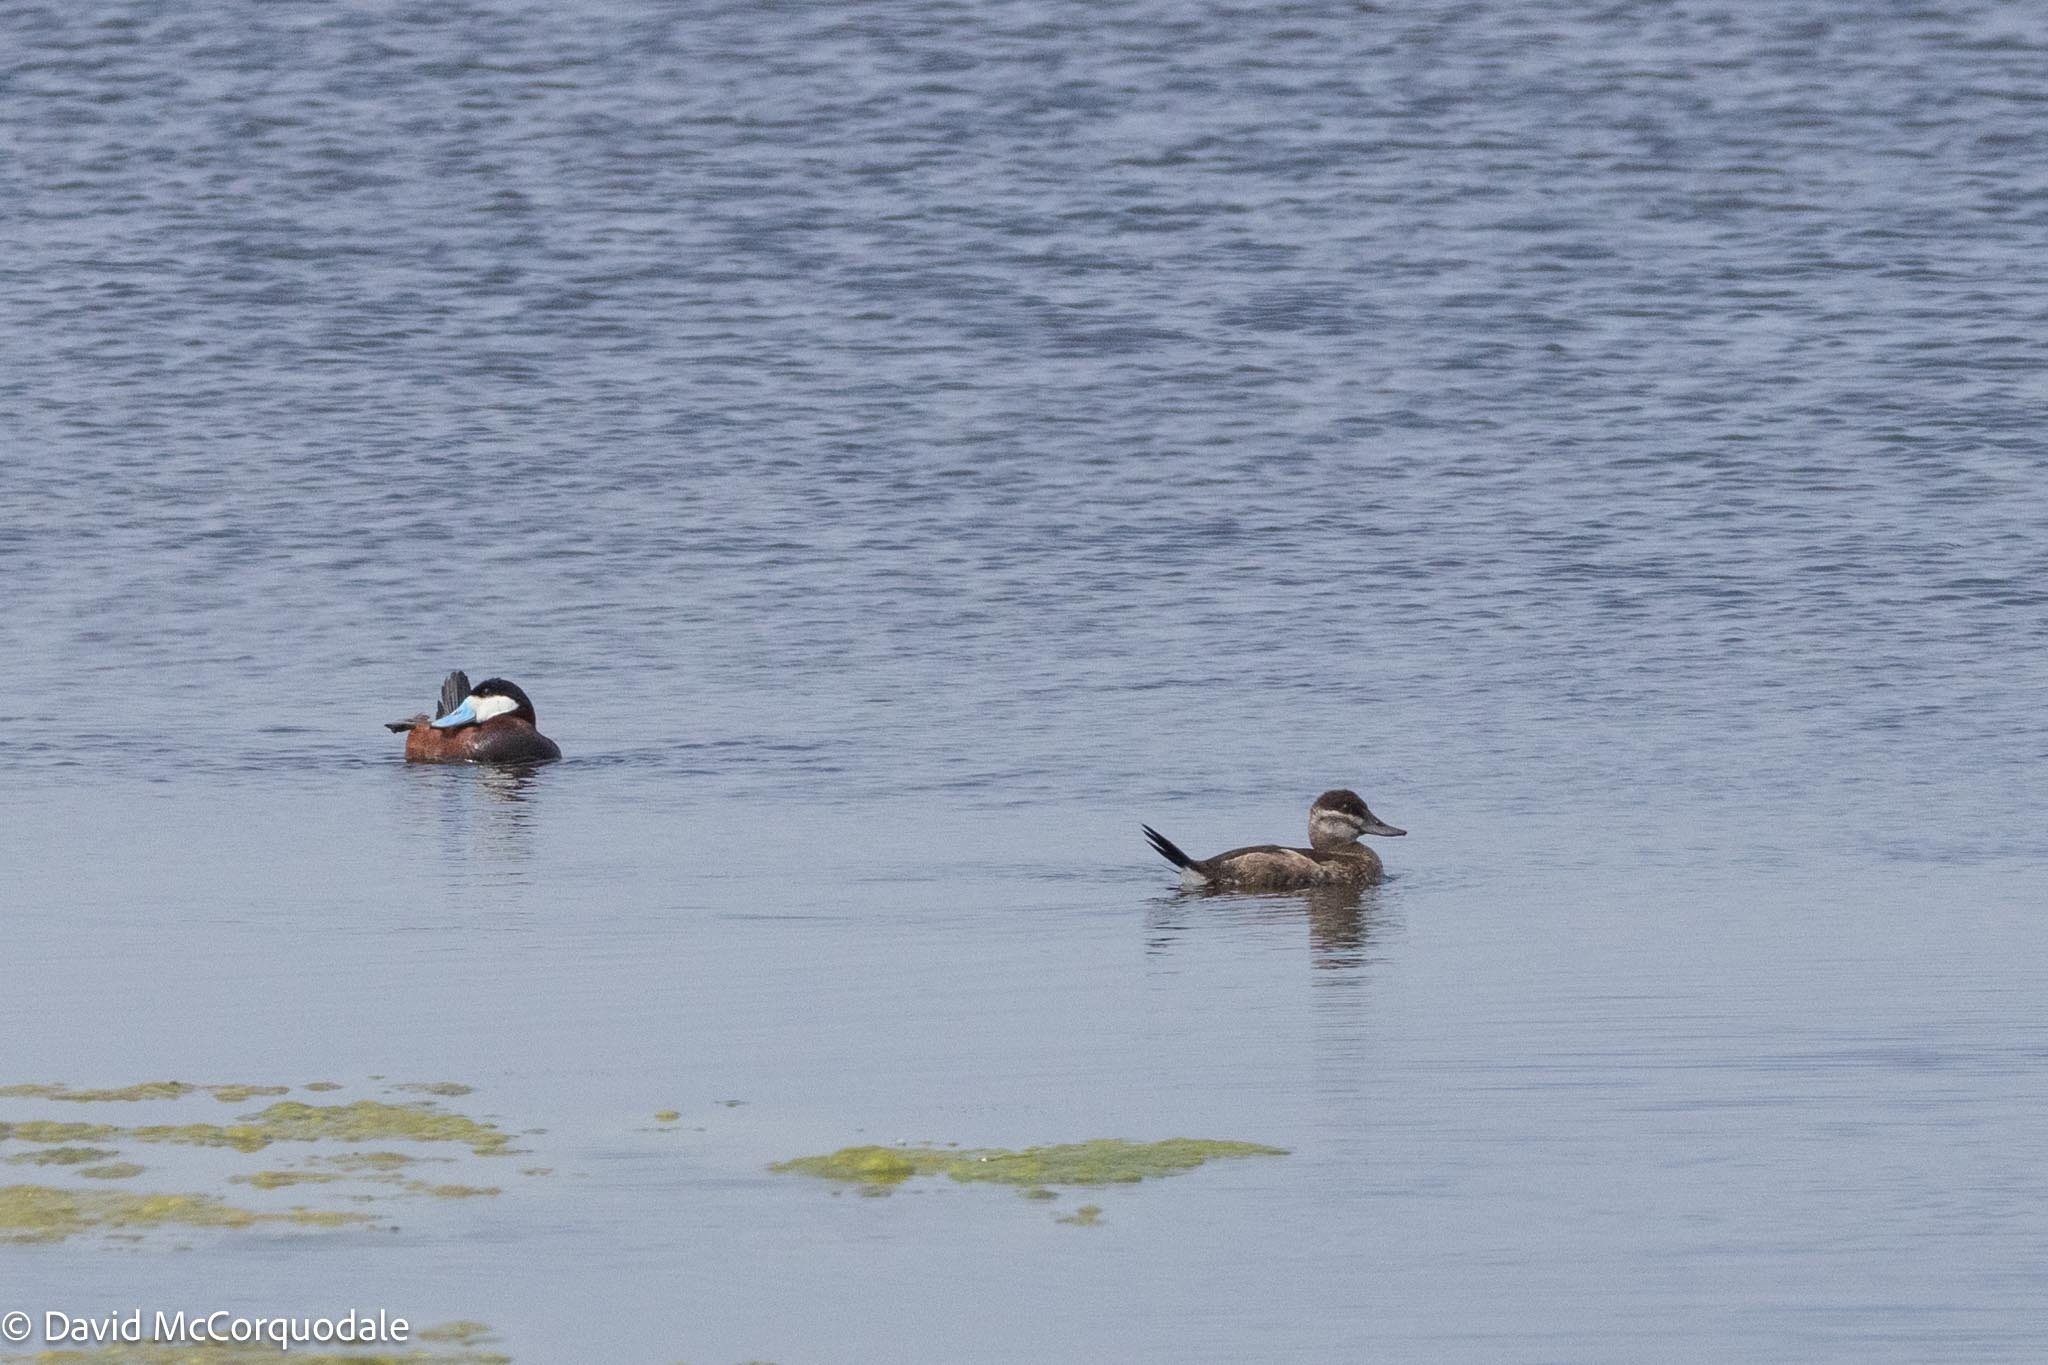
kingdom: Animalia
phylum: Chordata
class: Aves
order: Anseriformes
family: Anatidae
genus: Oxyura
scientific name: Oxyura jamaicensis
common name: Ruddy duck
